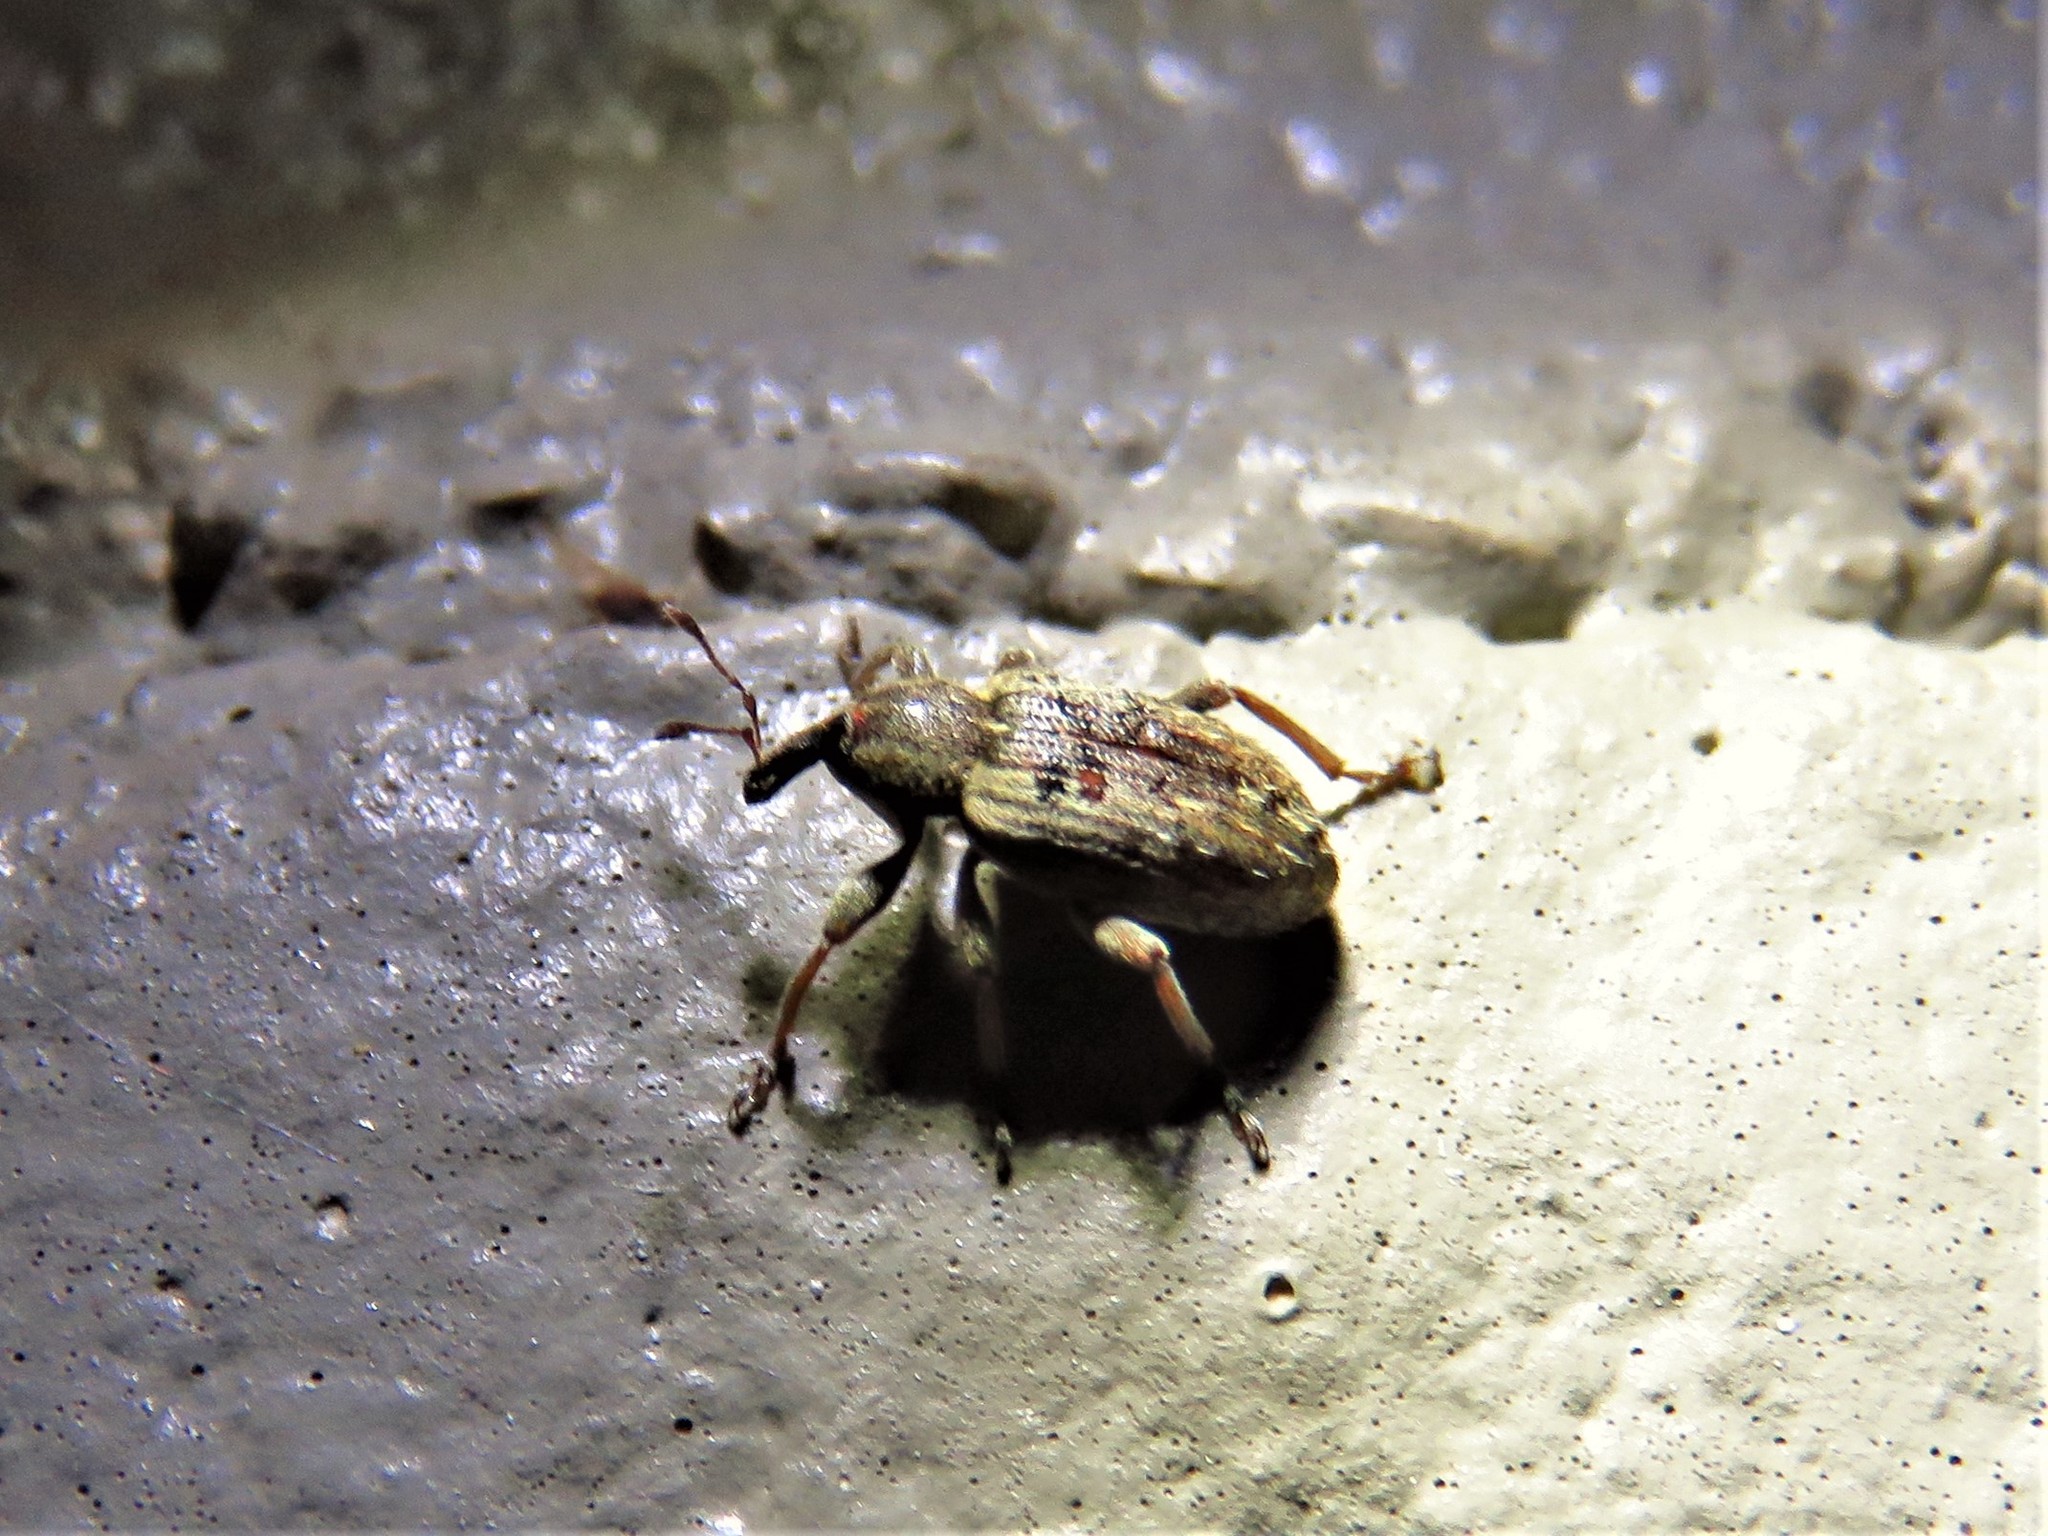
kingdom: Animalia
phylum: Arthropoda
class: Insecta
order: Coleoptera
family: Curculionidae
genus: Hypera
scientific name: Hypera postica
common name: Weevil
